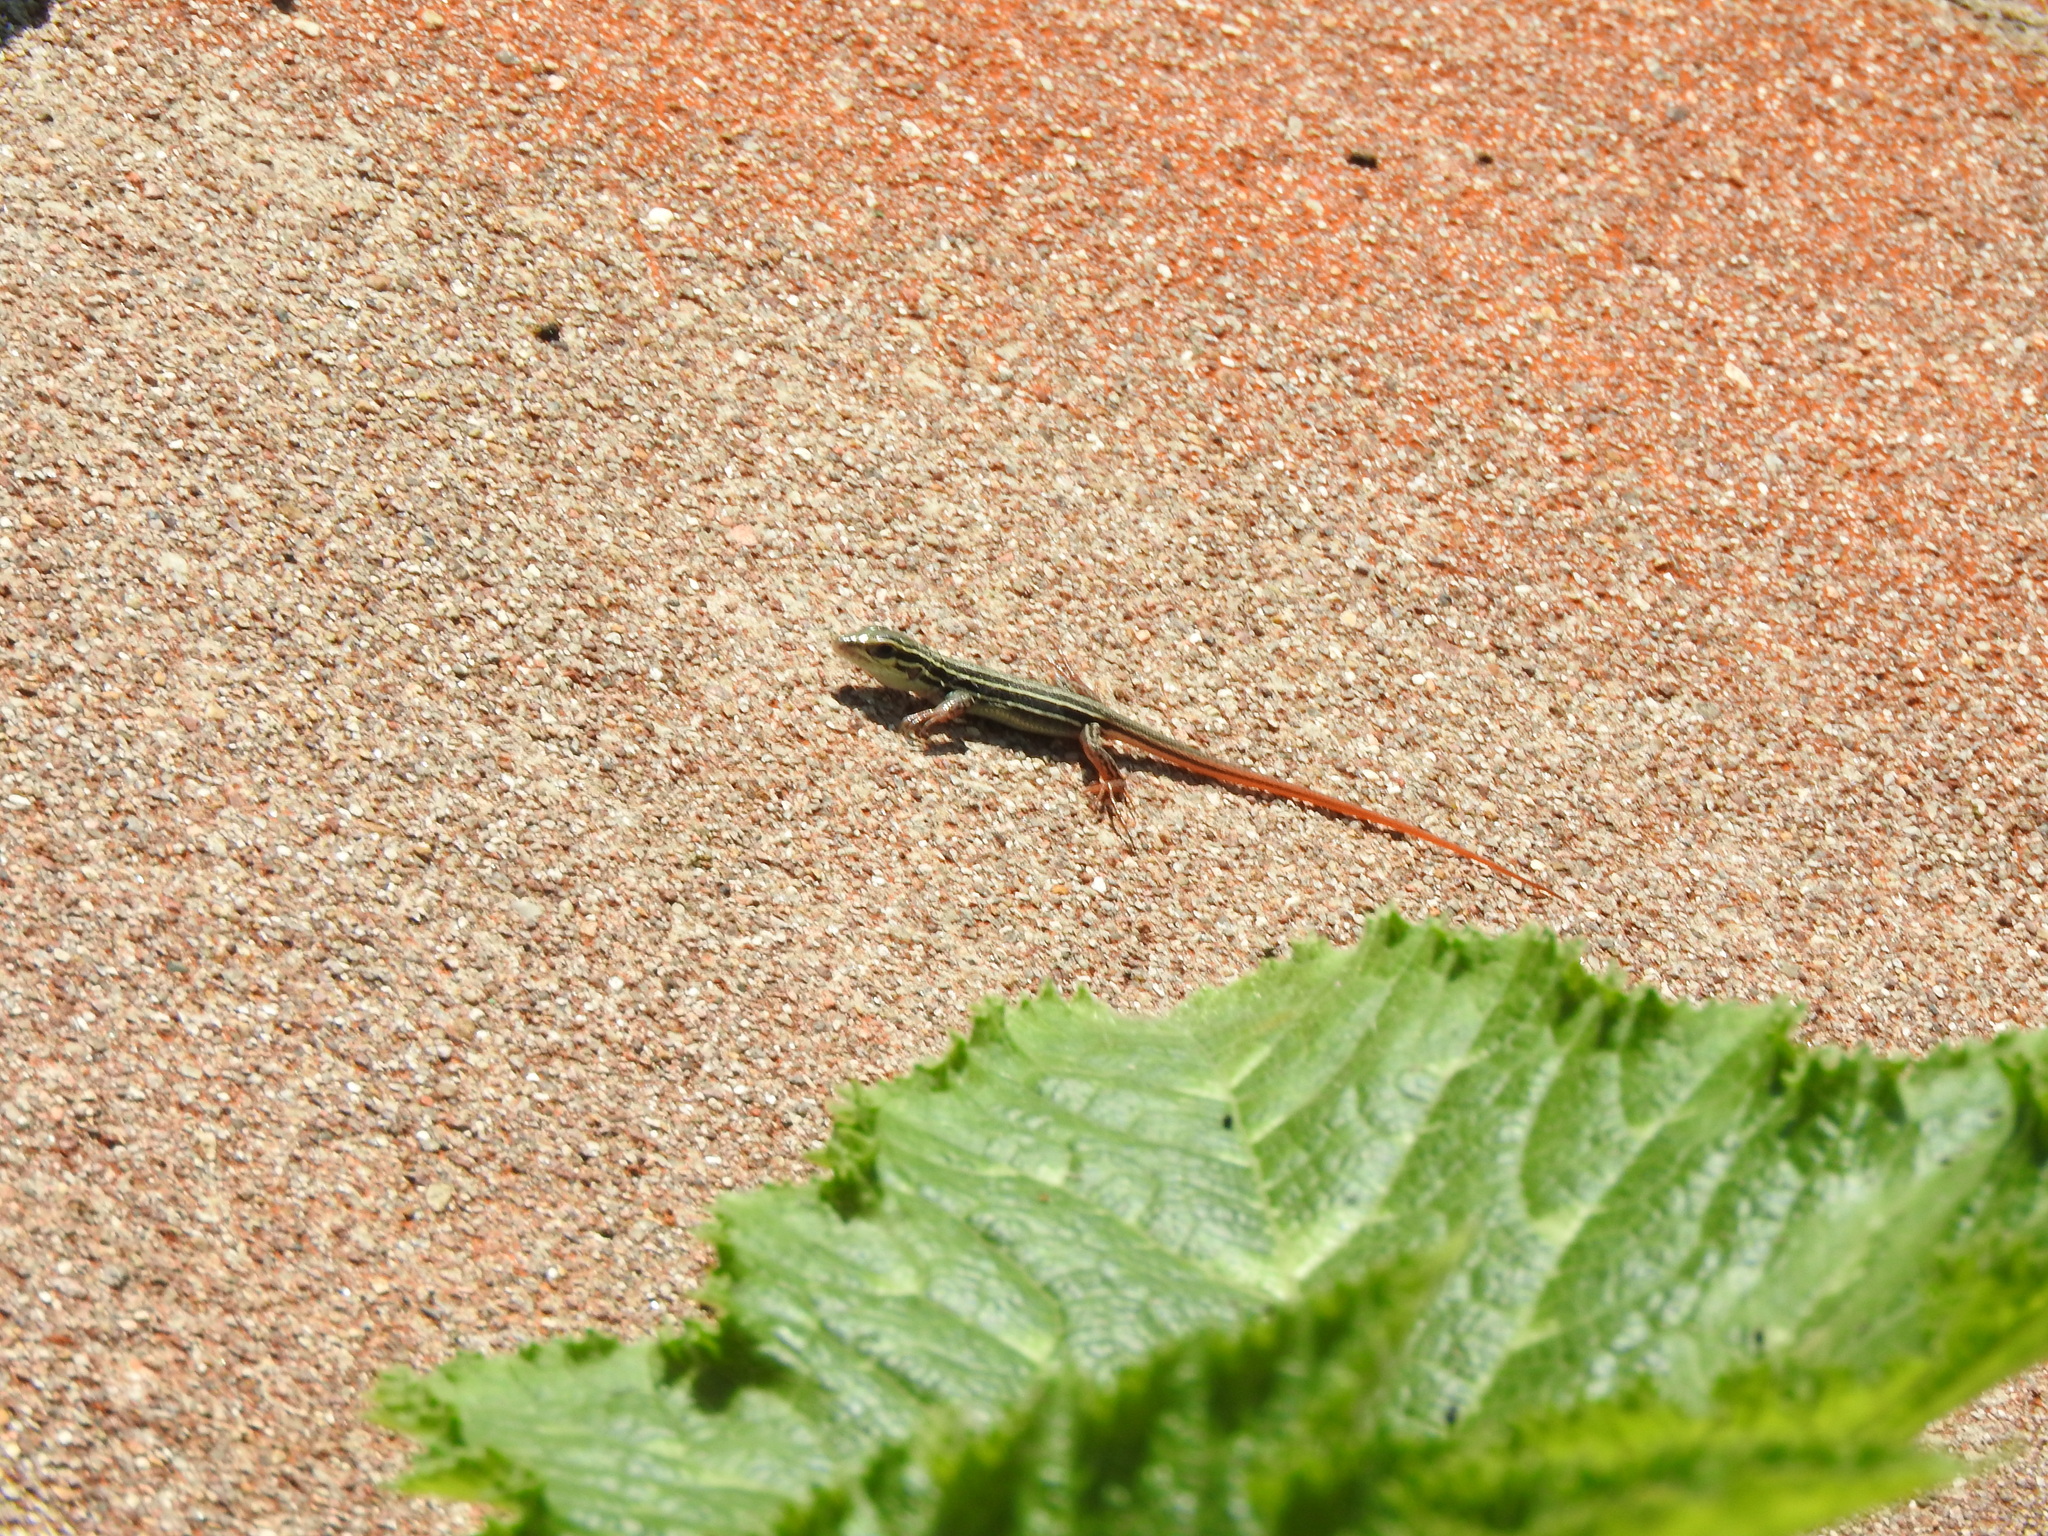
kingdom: Animalia
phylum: Chordata
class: Squamata
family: Teiidae
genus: Aspidoscelis
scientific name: Aspidoscelis gularis
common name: Eastern spotted whiptail
